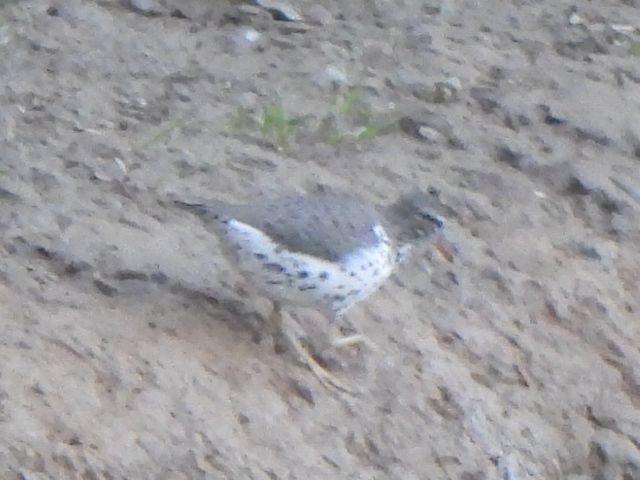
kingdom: Animalia
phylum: Chordata
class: Aves
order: Charadriiformes
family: Scolopacidae
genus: Actitis
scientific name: Actitis macularius
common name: Spotted sandpiper
